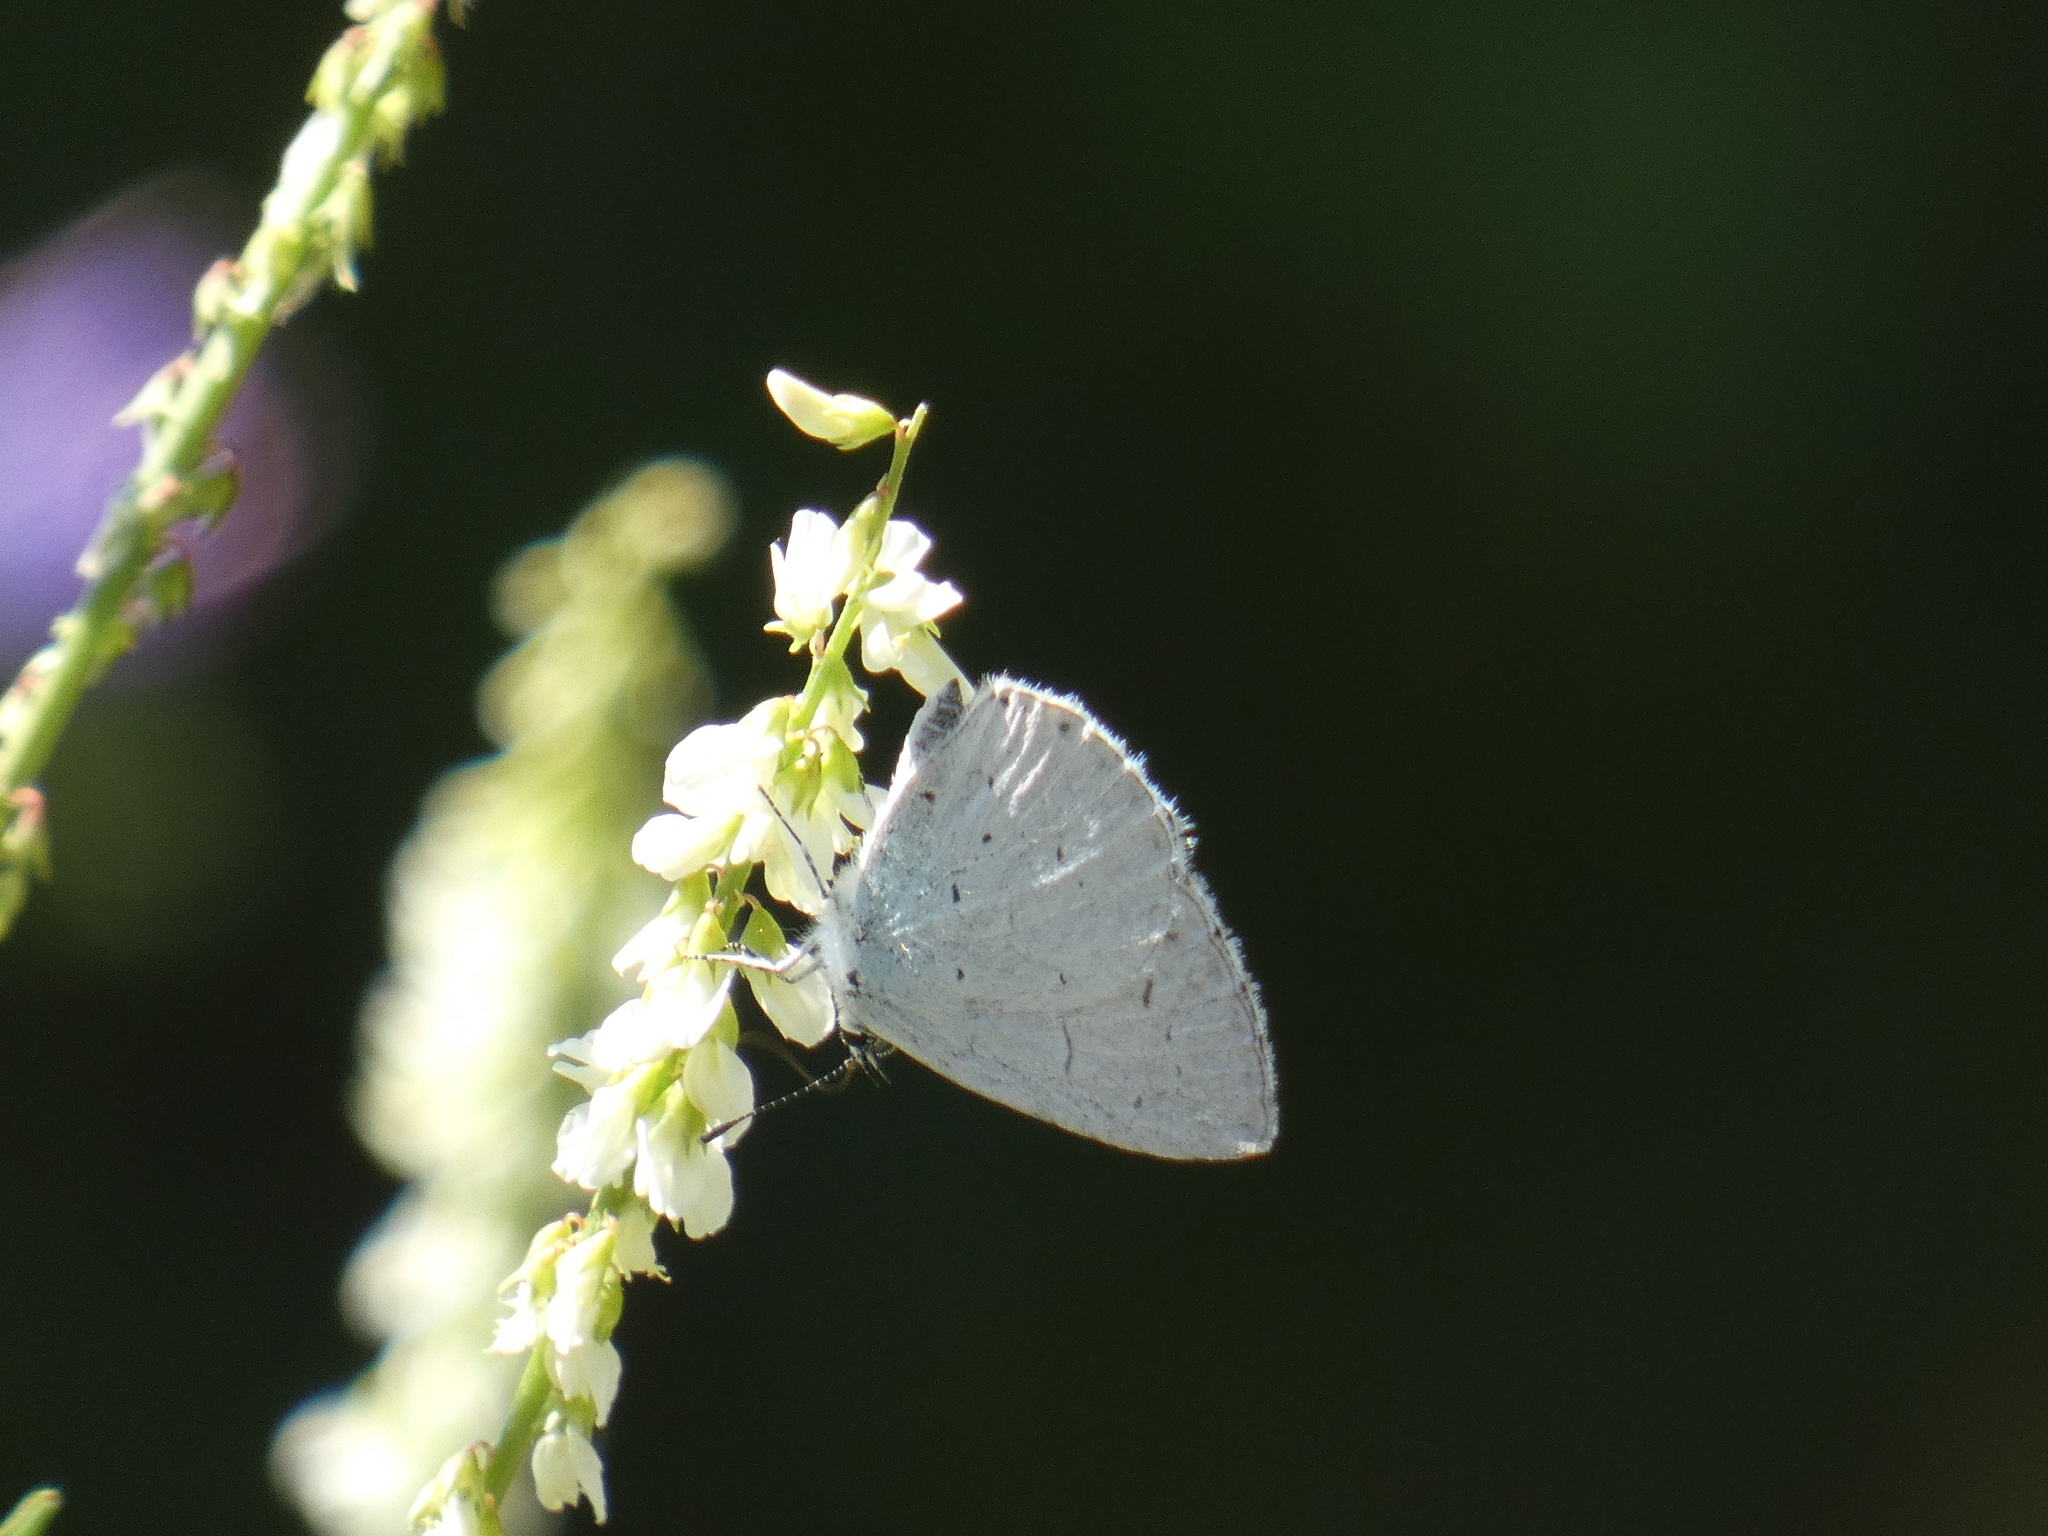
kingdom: Animalia
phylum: Arthropoda
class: Insecta
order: Lepidoptera
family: Lycaenidae
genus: Celastrina
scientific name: Celastrina argiolus
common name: Holly blue
